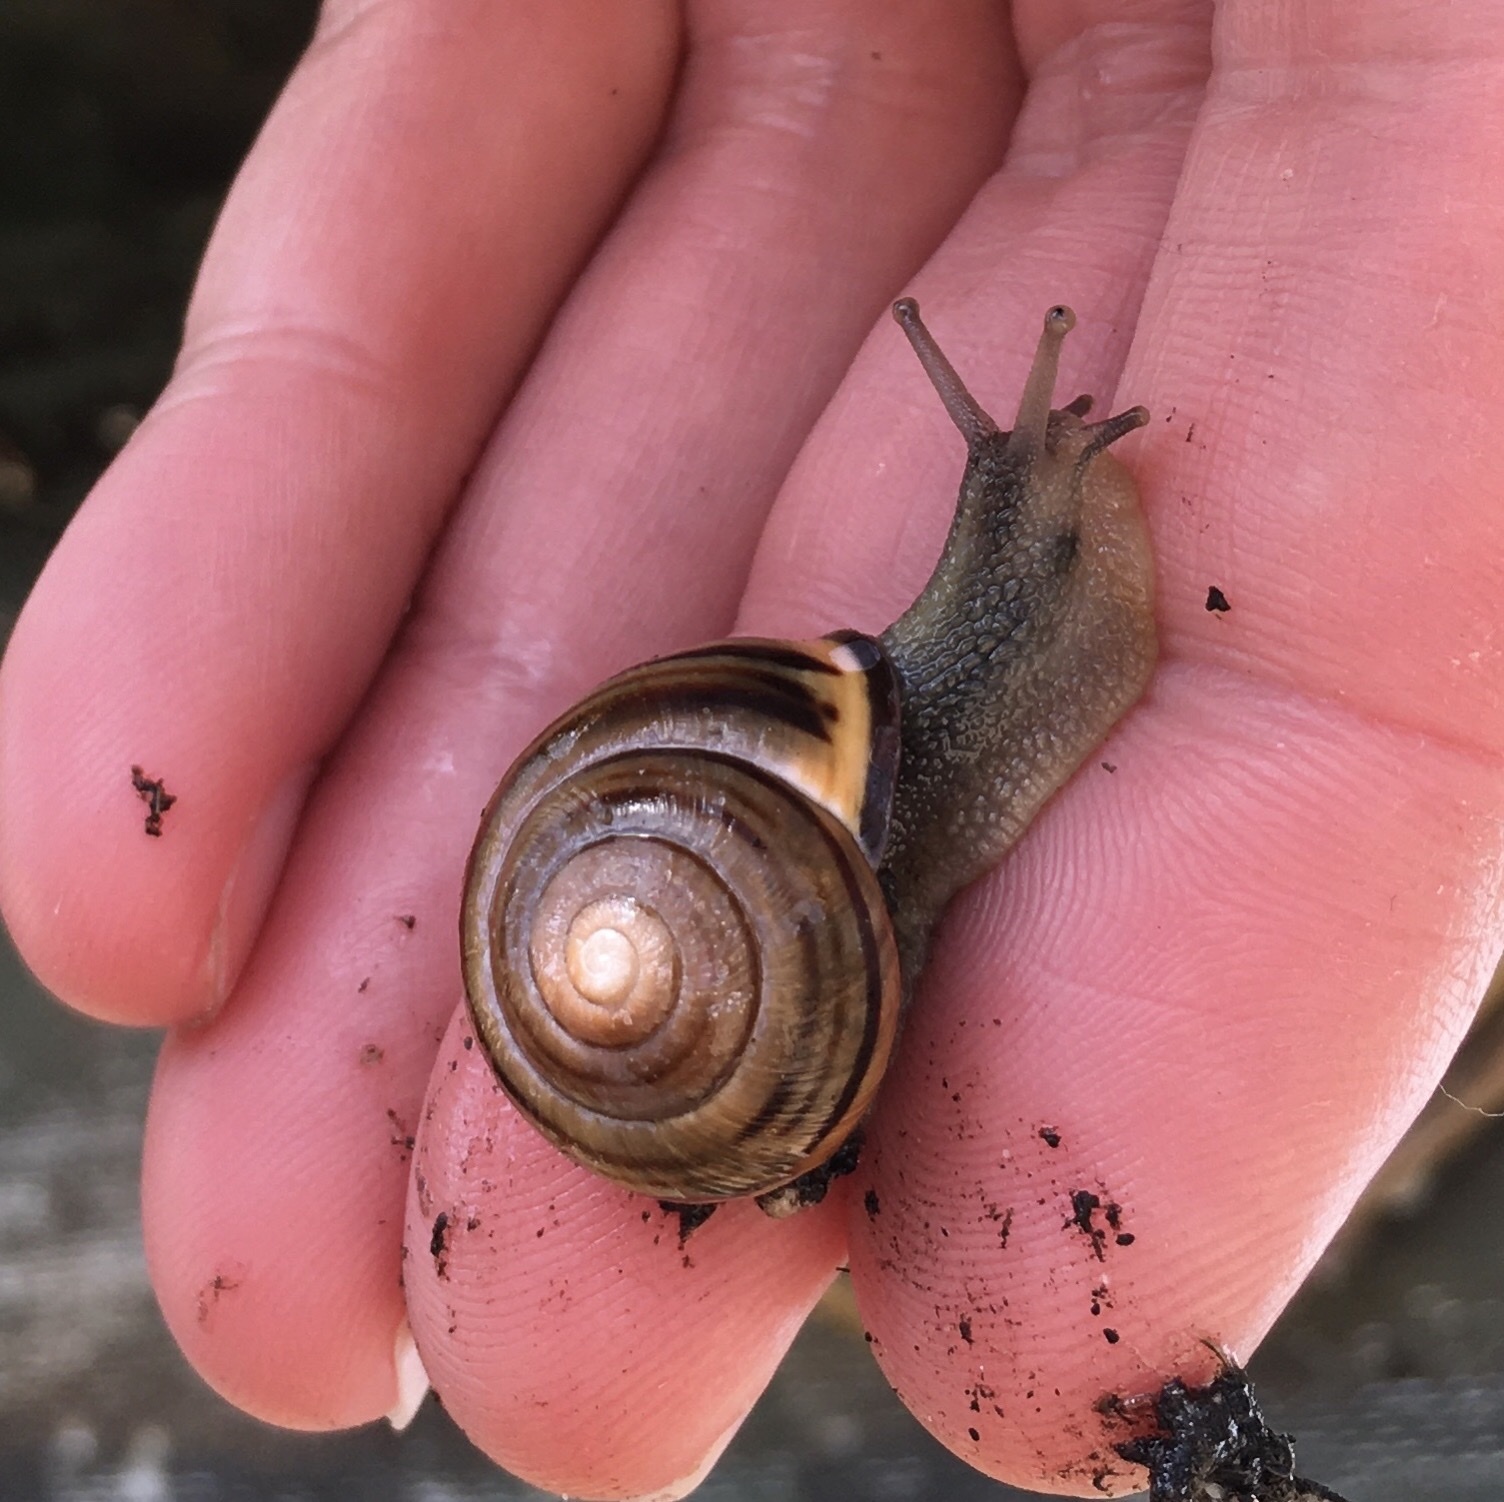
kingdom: Animalia
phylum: Mollusca
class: Gastropoda
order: Stylommatophora
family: Helicidae
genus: Cepaea
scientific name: Cepaea nemoralis
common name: Grovesnail
